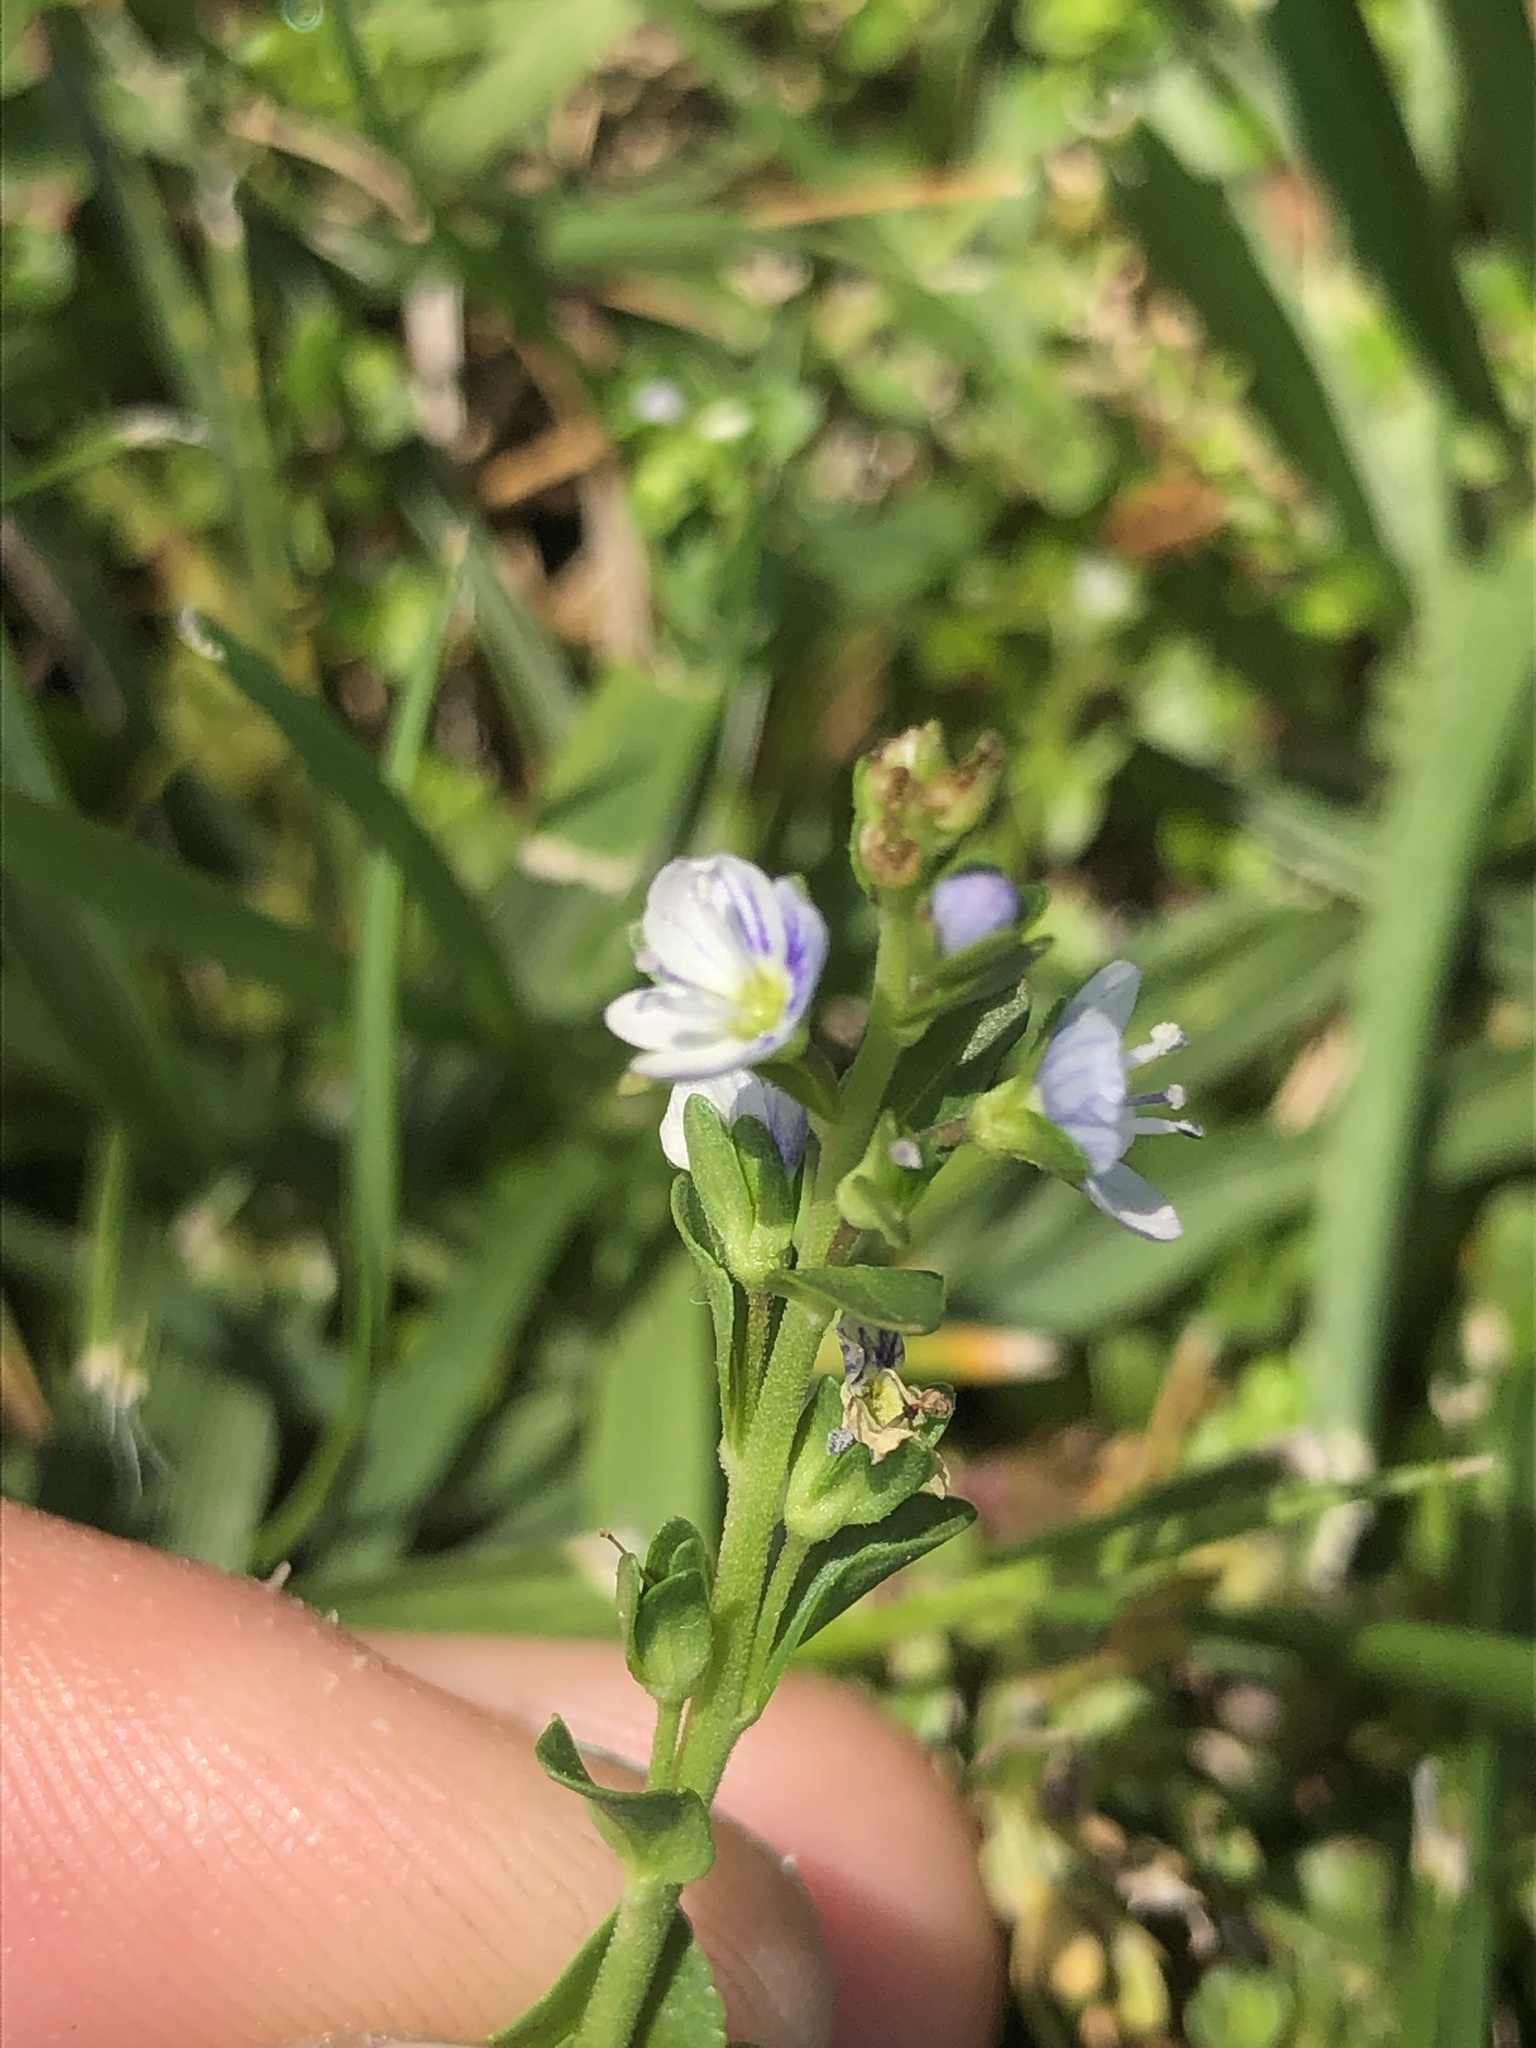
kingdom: Plantae
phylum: Tracheophyta
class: Magnoliopsida
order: Lamiales
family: Plantaginaceae
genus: Veronica
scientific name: Veronica serpyllifolia
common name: Thyme-leaved speedwell
